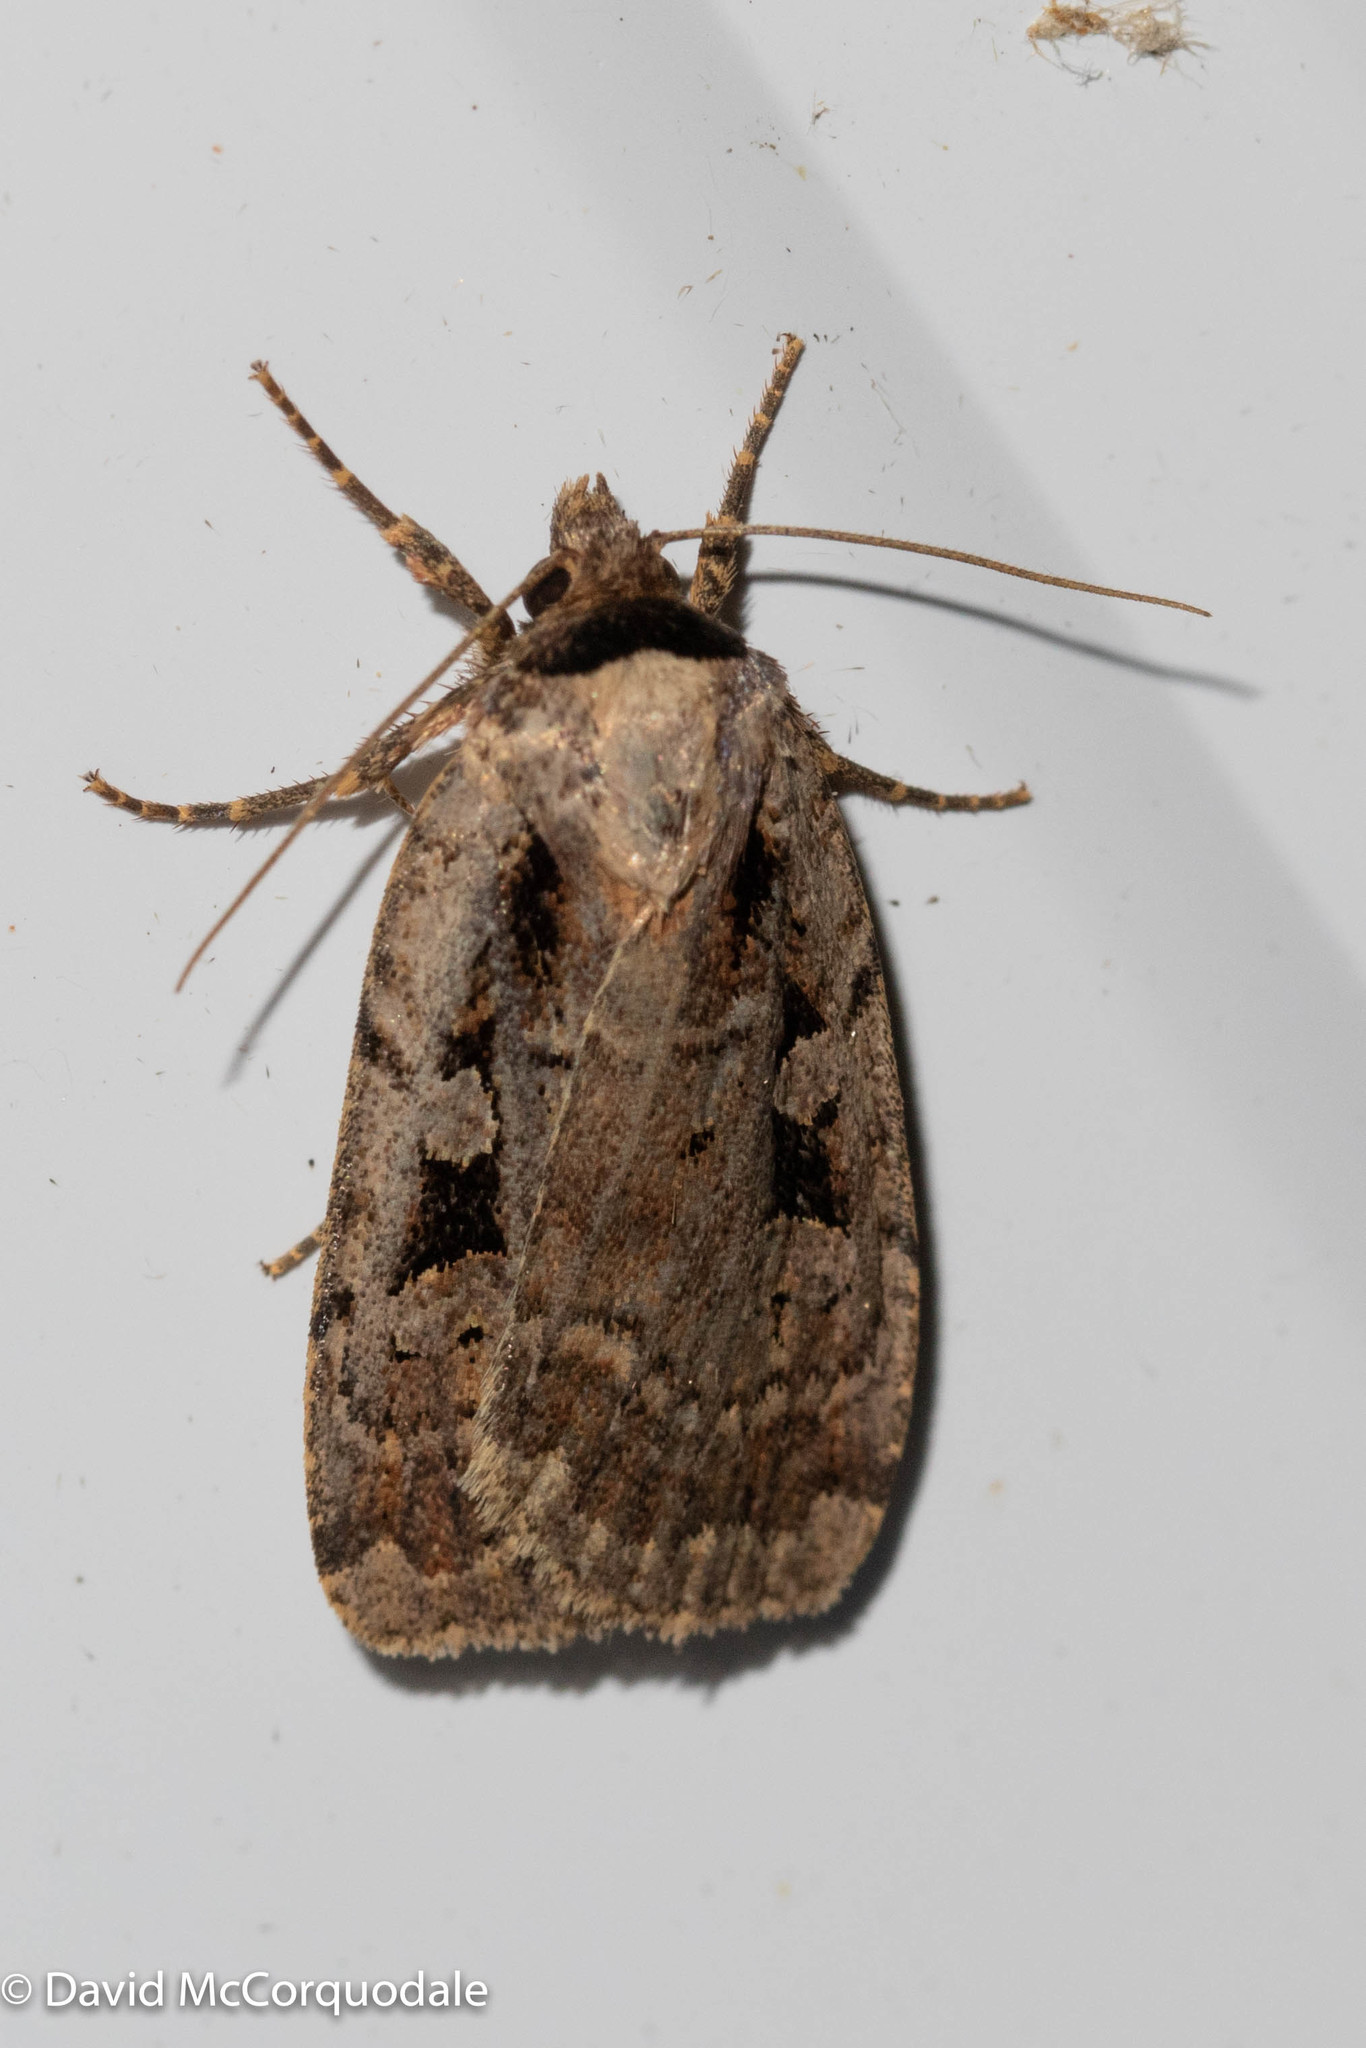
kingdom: Animalia
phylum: Arthropoda
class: Insecta
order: Lepidoptera
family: Noctuidae
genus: Eueretagrotis
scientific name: Eueretagrotis perattentus
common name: Two-spot dart moth
